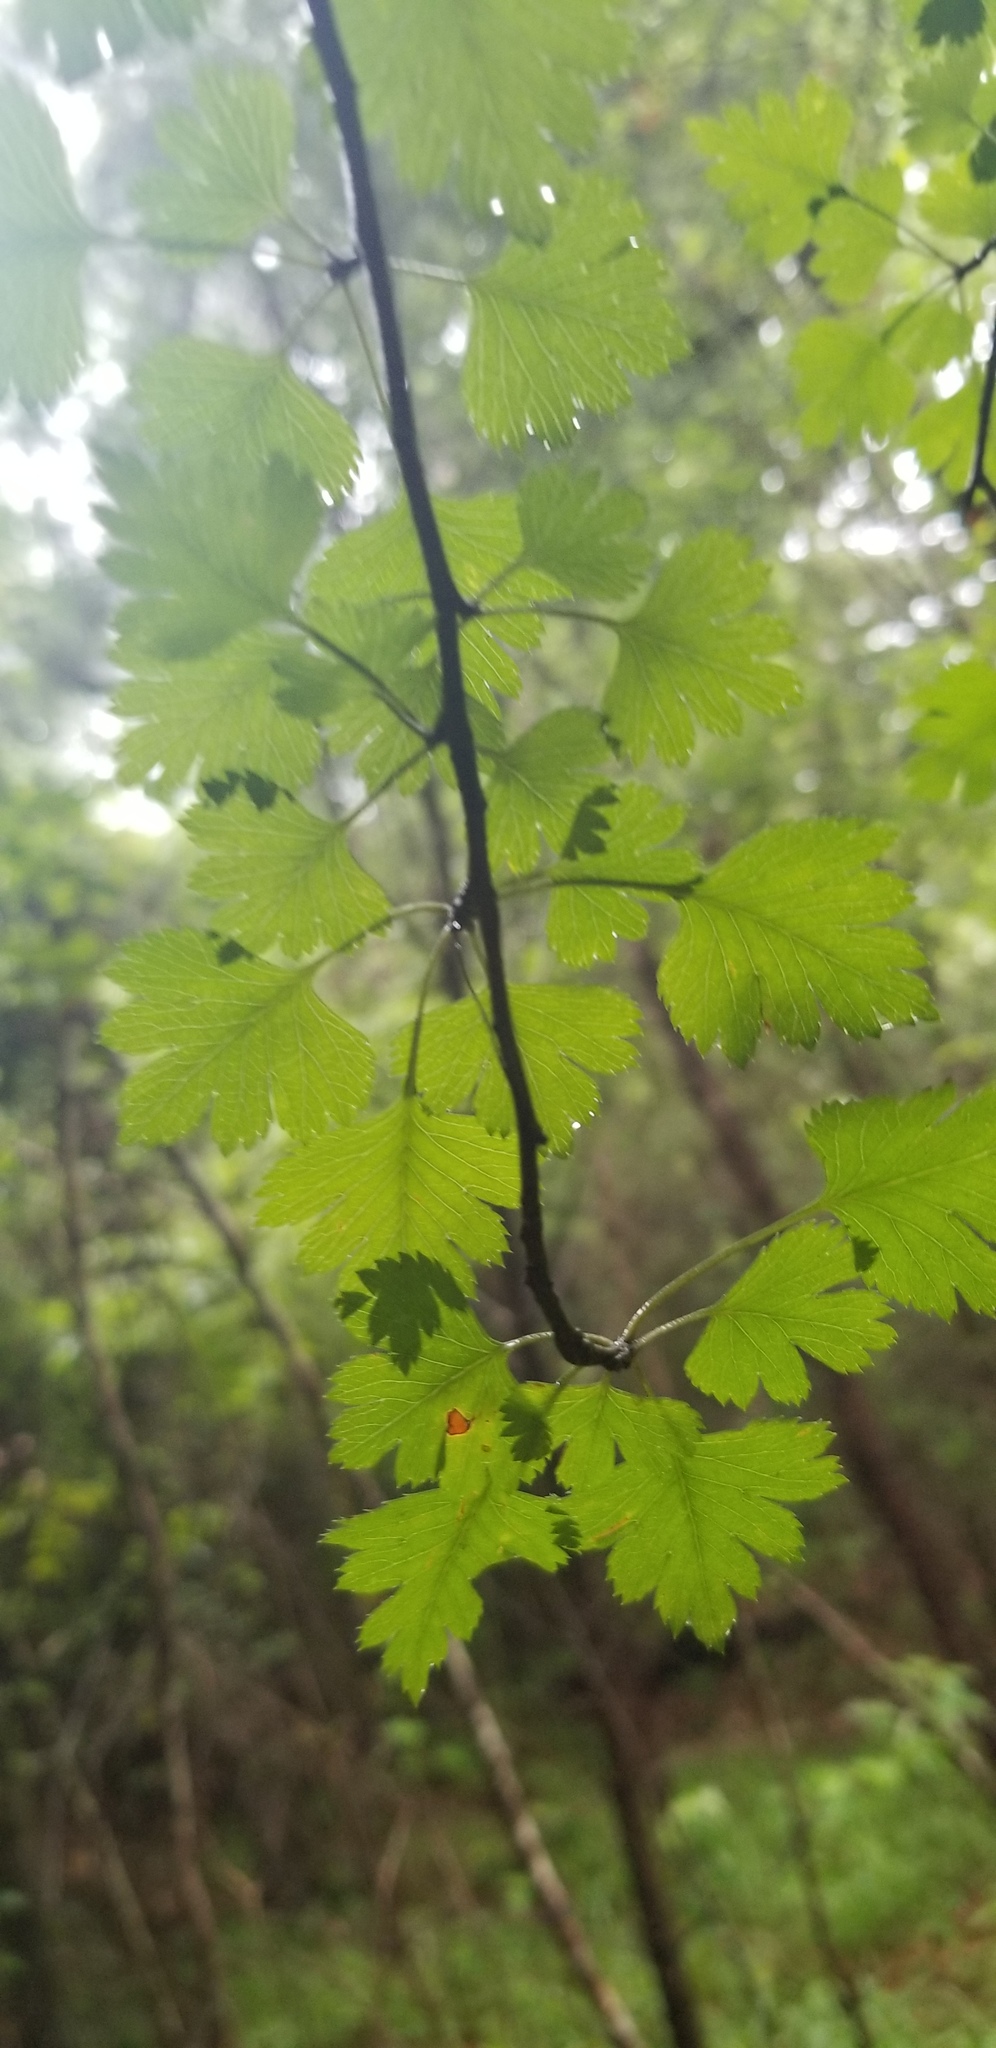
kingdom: Plantae
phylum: Tracheophyta
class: Magnoliopsida
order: Rosales
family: Rosaceae
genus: Crataegus
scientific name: Crataegus marshallii
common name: Parsley-hawthorn
